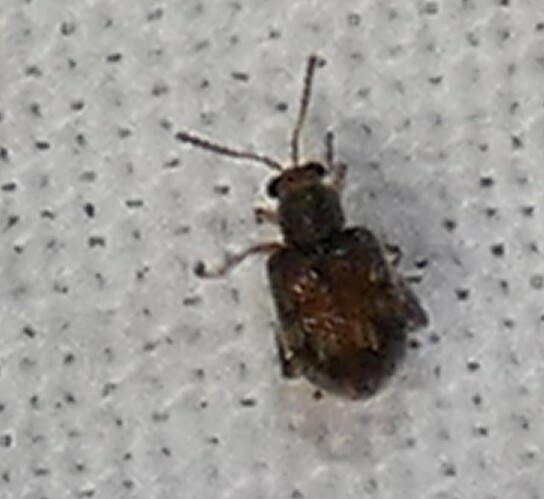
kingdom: Animalia
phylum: Arthropoda
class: Insecta
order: Coleoptera
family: Chrysomelidae
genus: Pseudolampis
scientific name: Pseudolampis guttata
